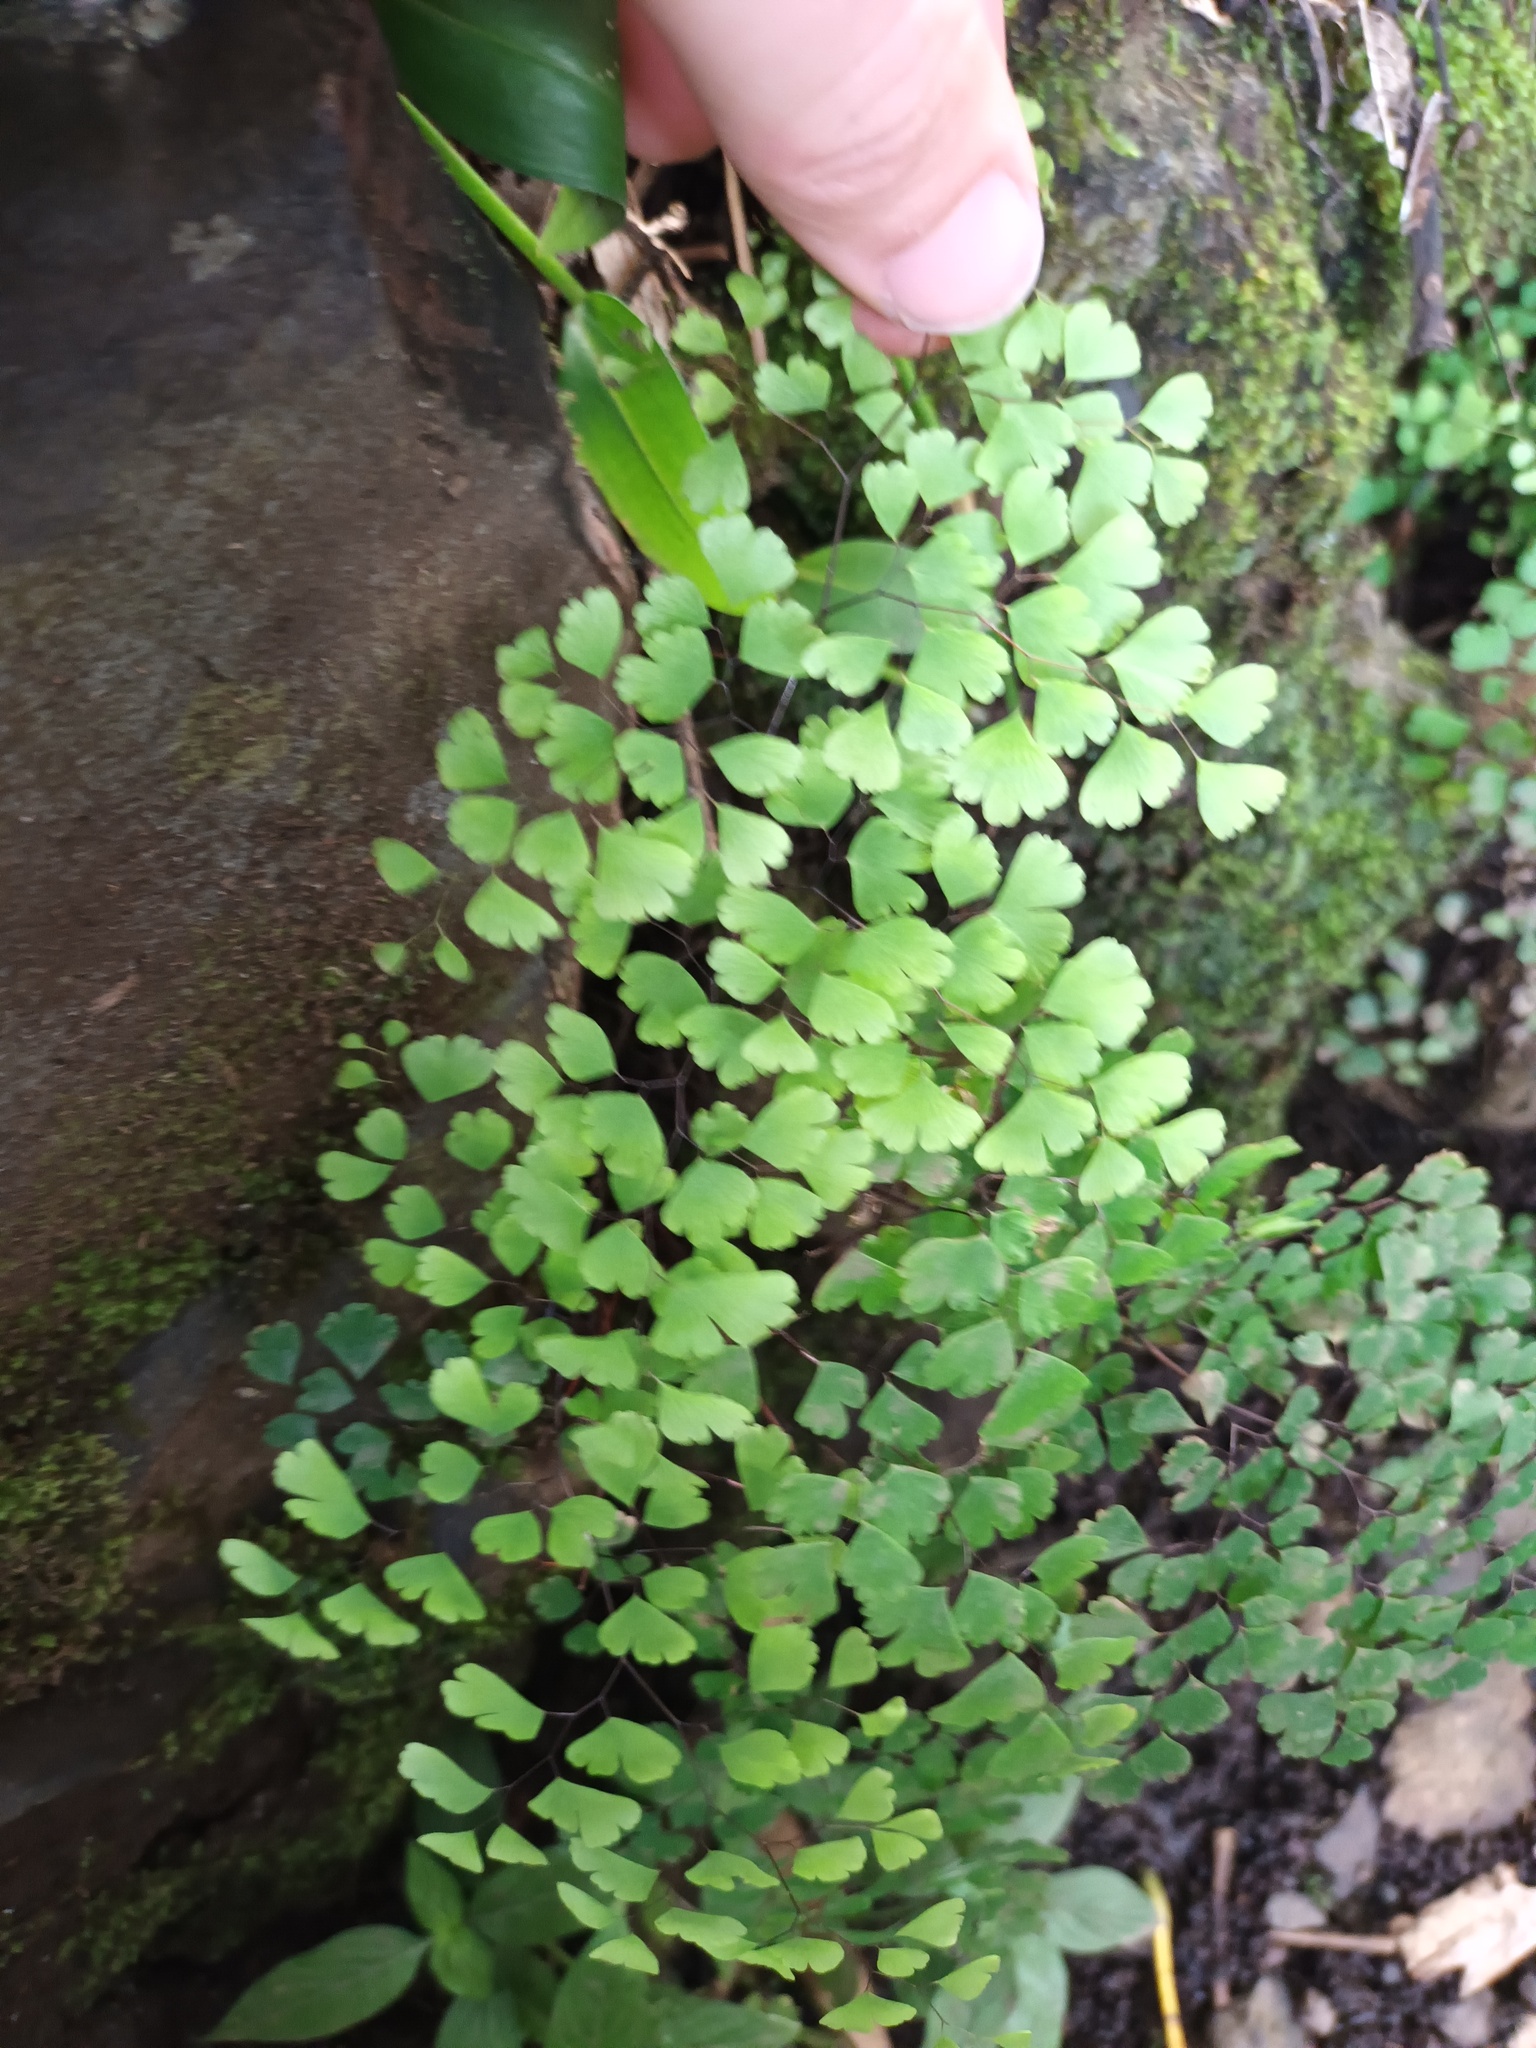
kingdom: Plantae
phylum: Tracheophyta
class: Polypodiopsida
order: Polypodiales
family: Pteridaceae
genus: Adiantum
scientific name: Adiantum raddianum
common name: Delta maidenhair fern
